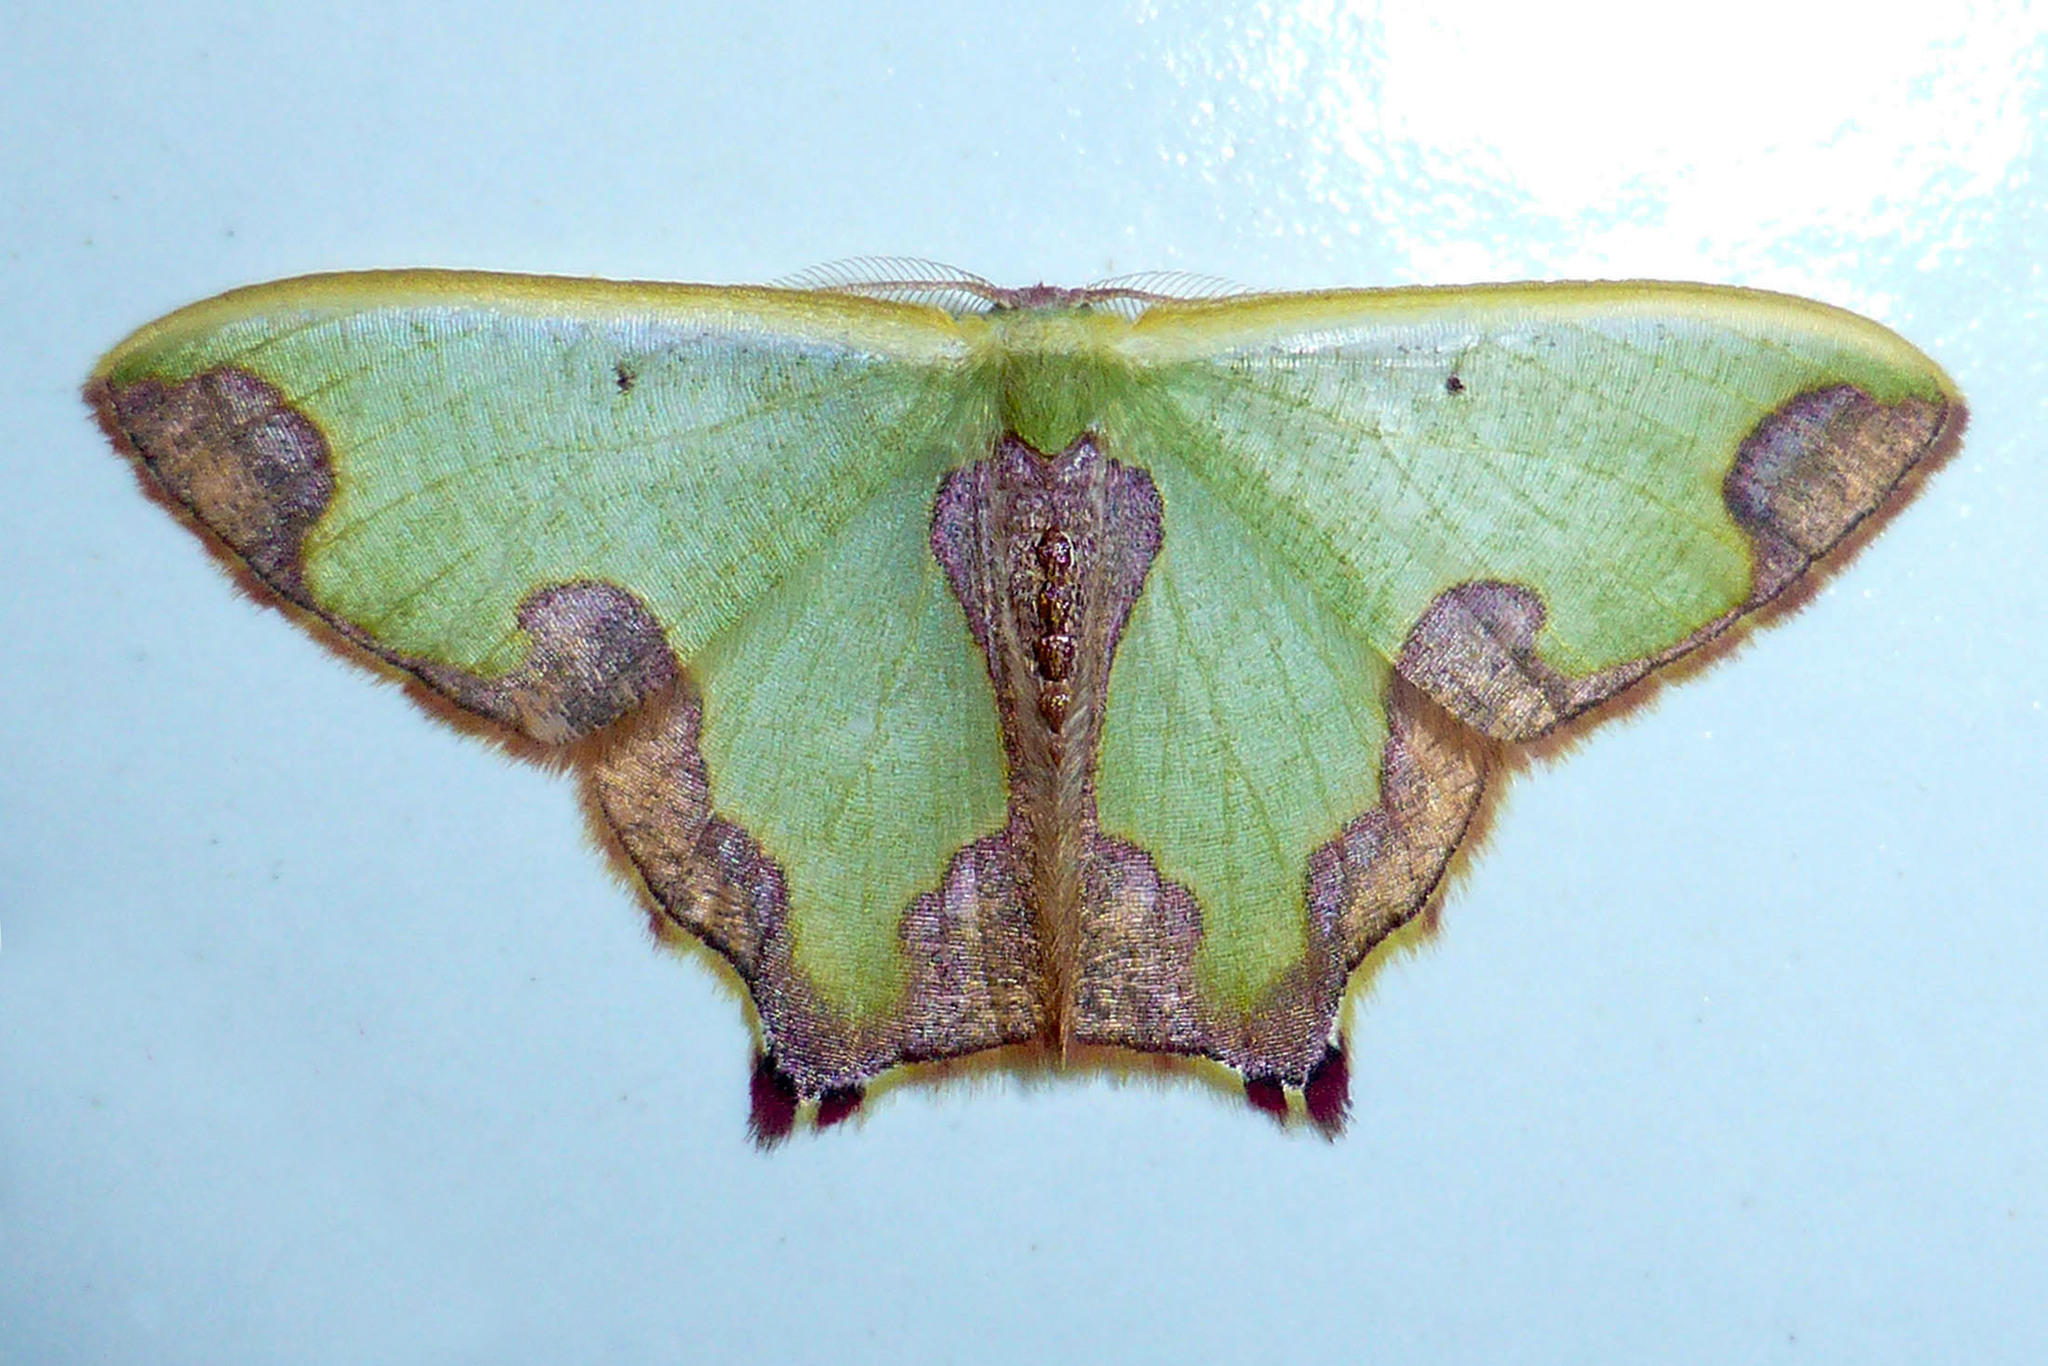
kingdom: Animalia
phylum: Arthropoda
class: Insecta
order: Lepidoptera
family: Geometridae
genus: Oospila
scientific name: Oospila quinquemaculata
